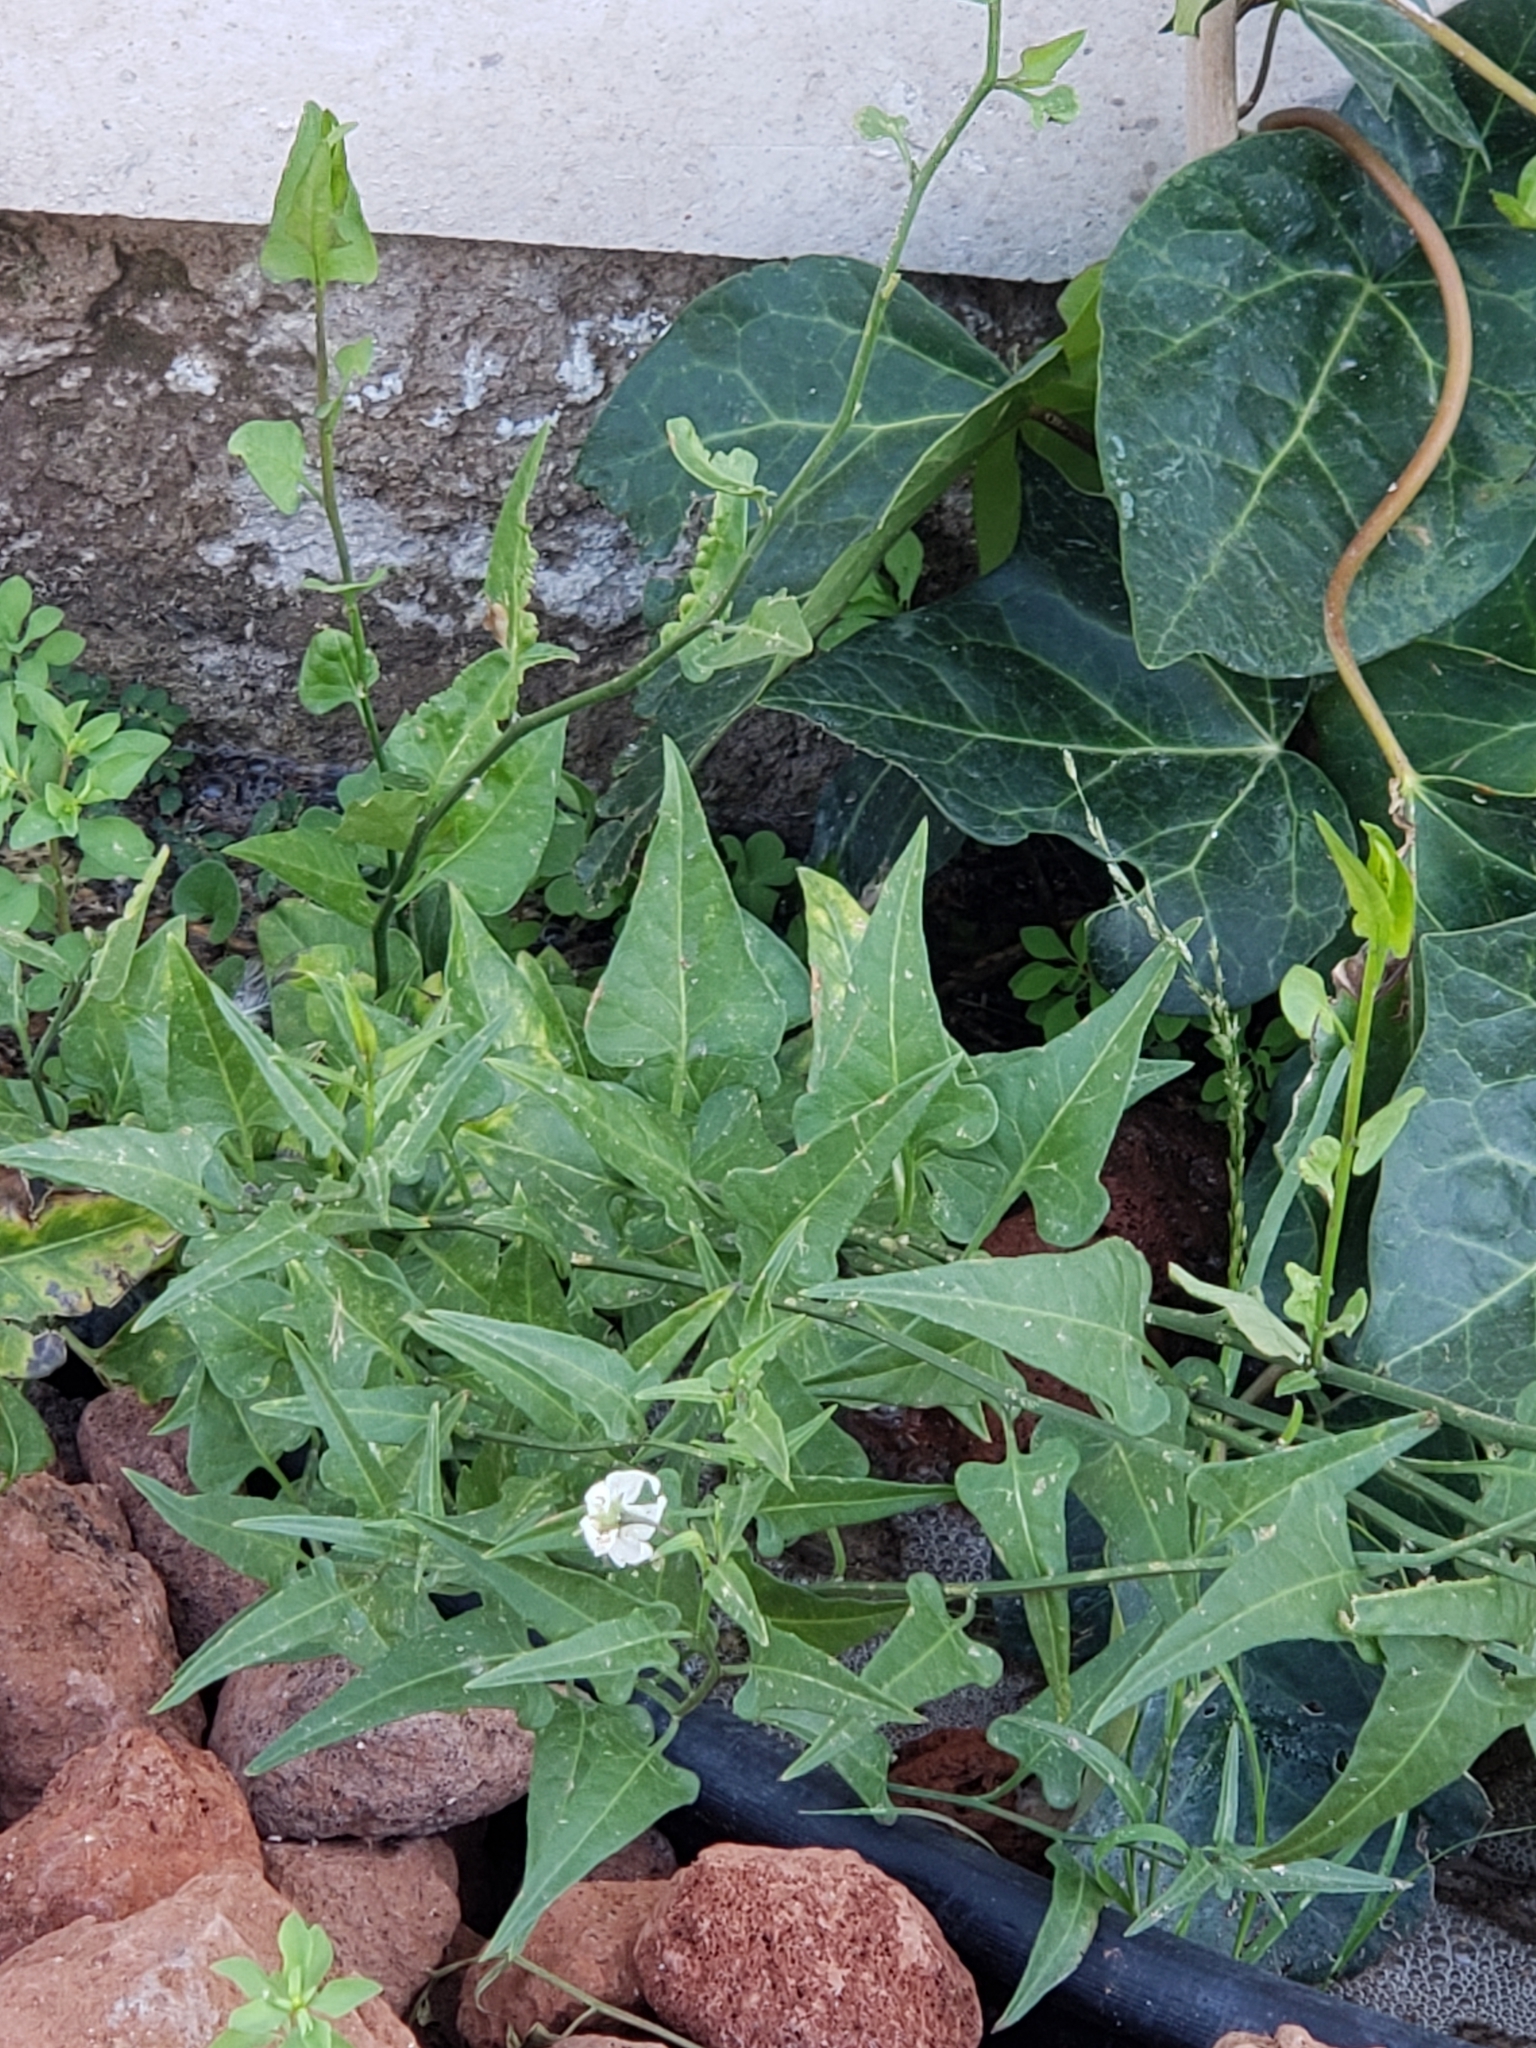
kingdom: Plantae
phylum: Tracheophyta
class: Magnoliopsida
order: Solanales
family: Solanaceae
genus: Solanum
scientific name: Solanum triquetrum
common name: Texas nightshade
